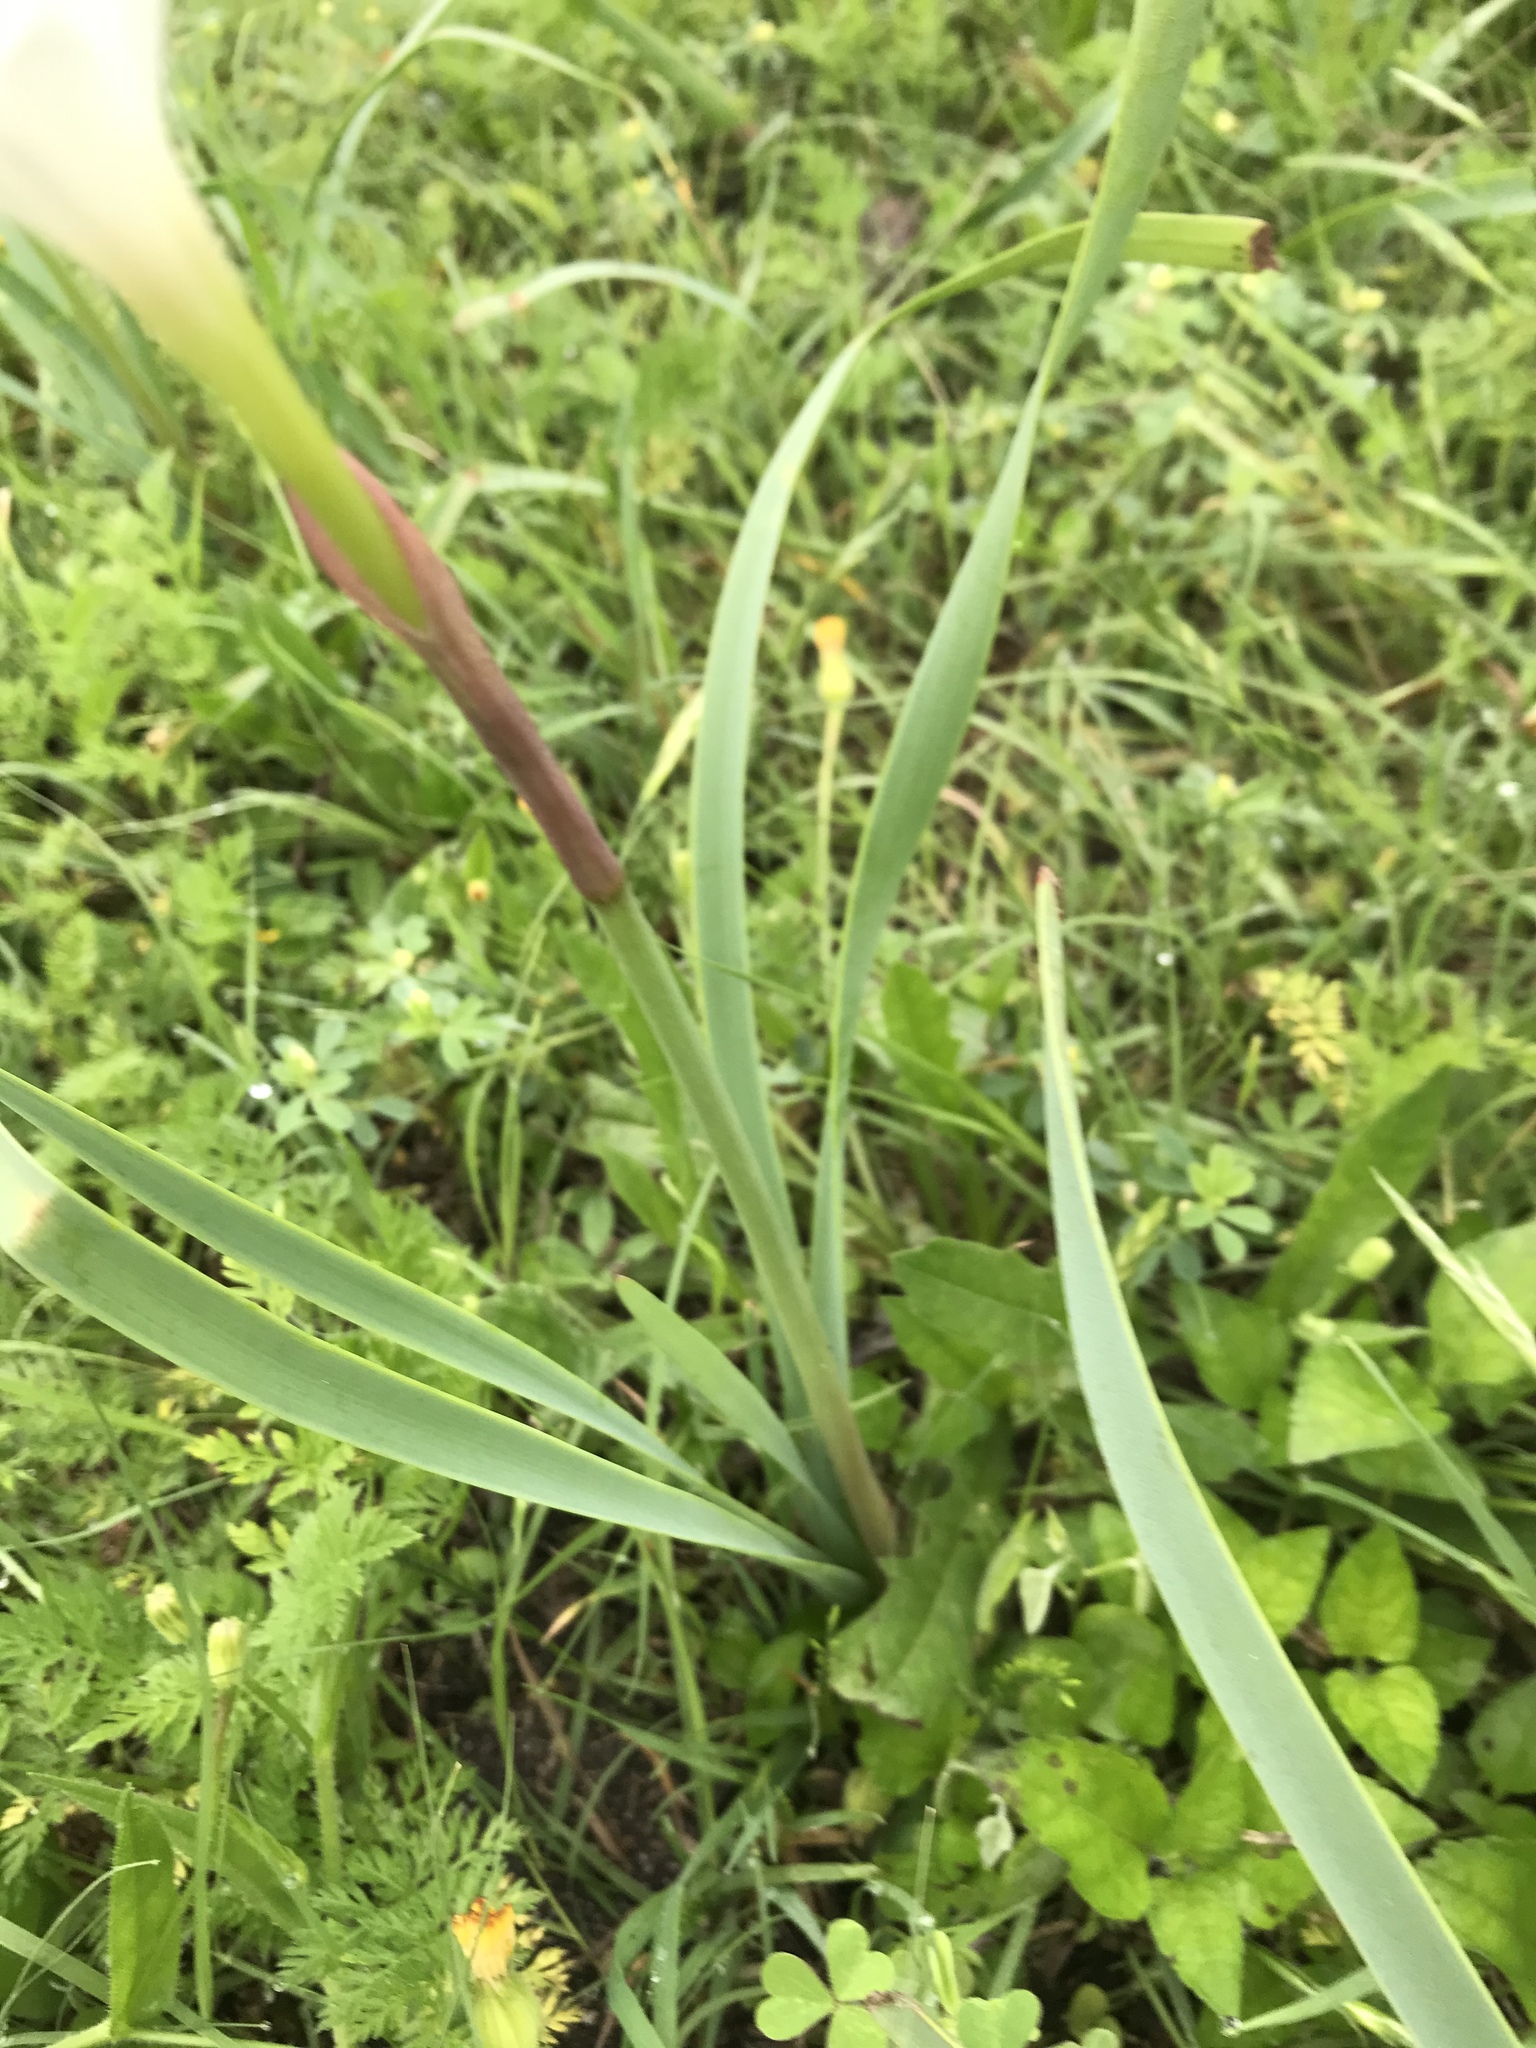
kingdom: Plantae
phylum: Tracheophyta
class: Liliopsida
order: Asparagales
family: Amaryllidaceae
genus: Zephyranthes
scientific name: Zephyranthes drummondii
